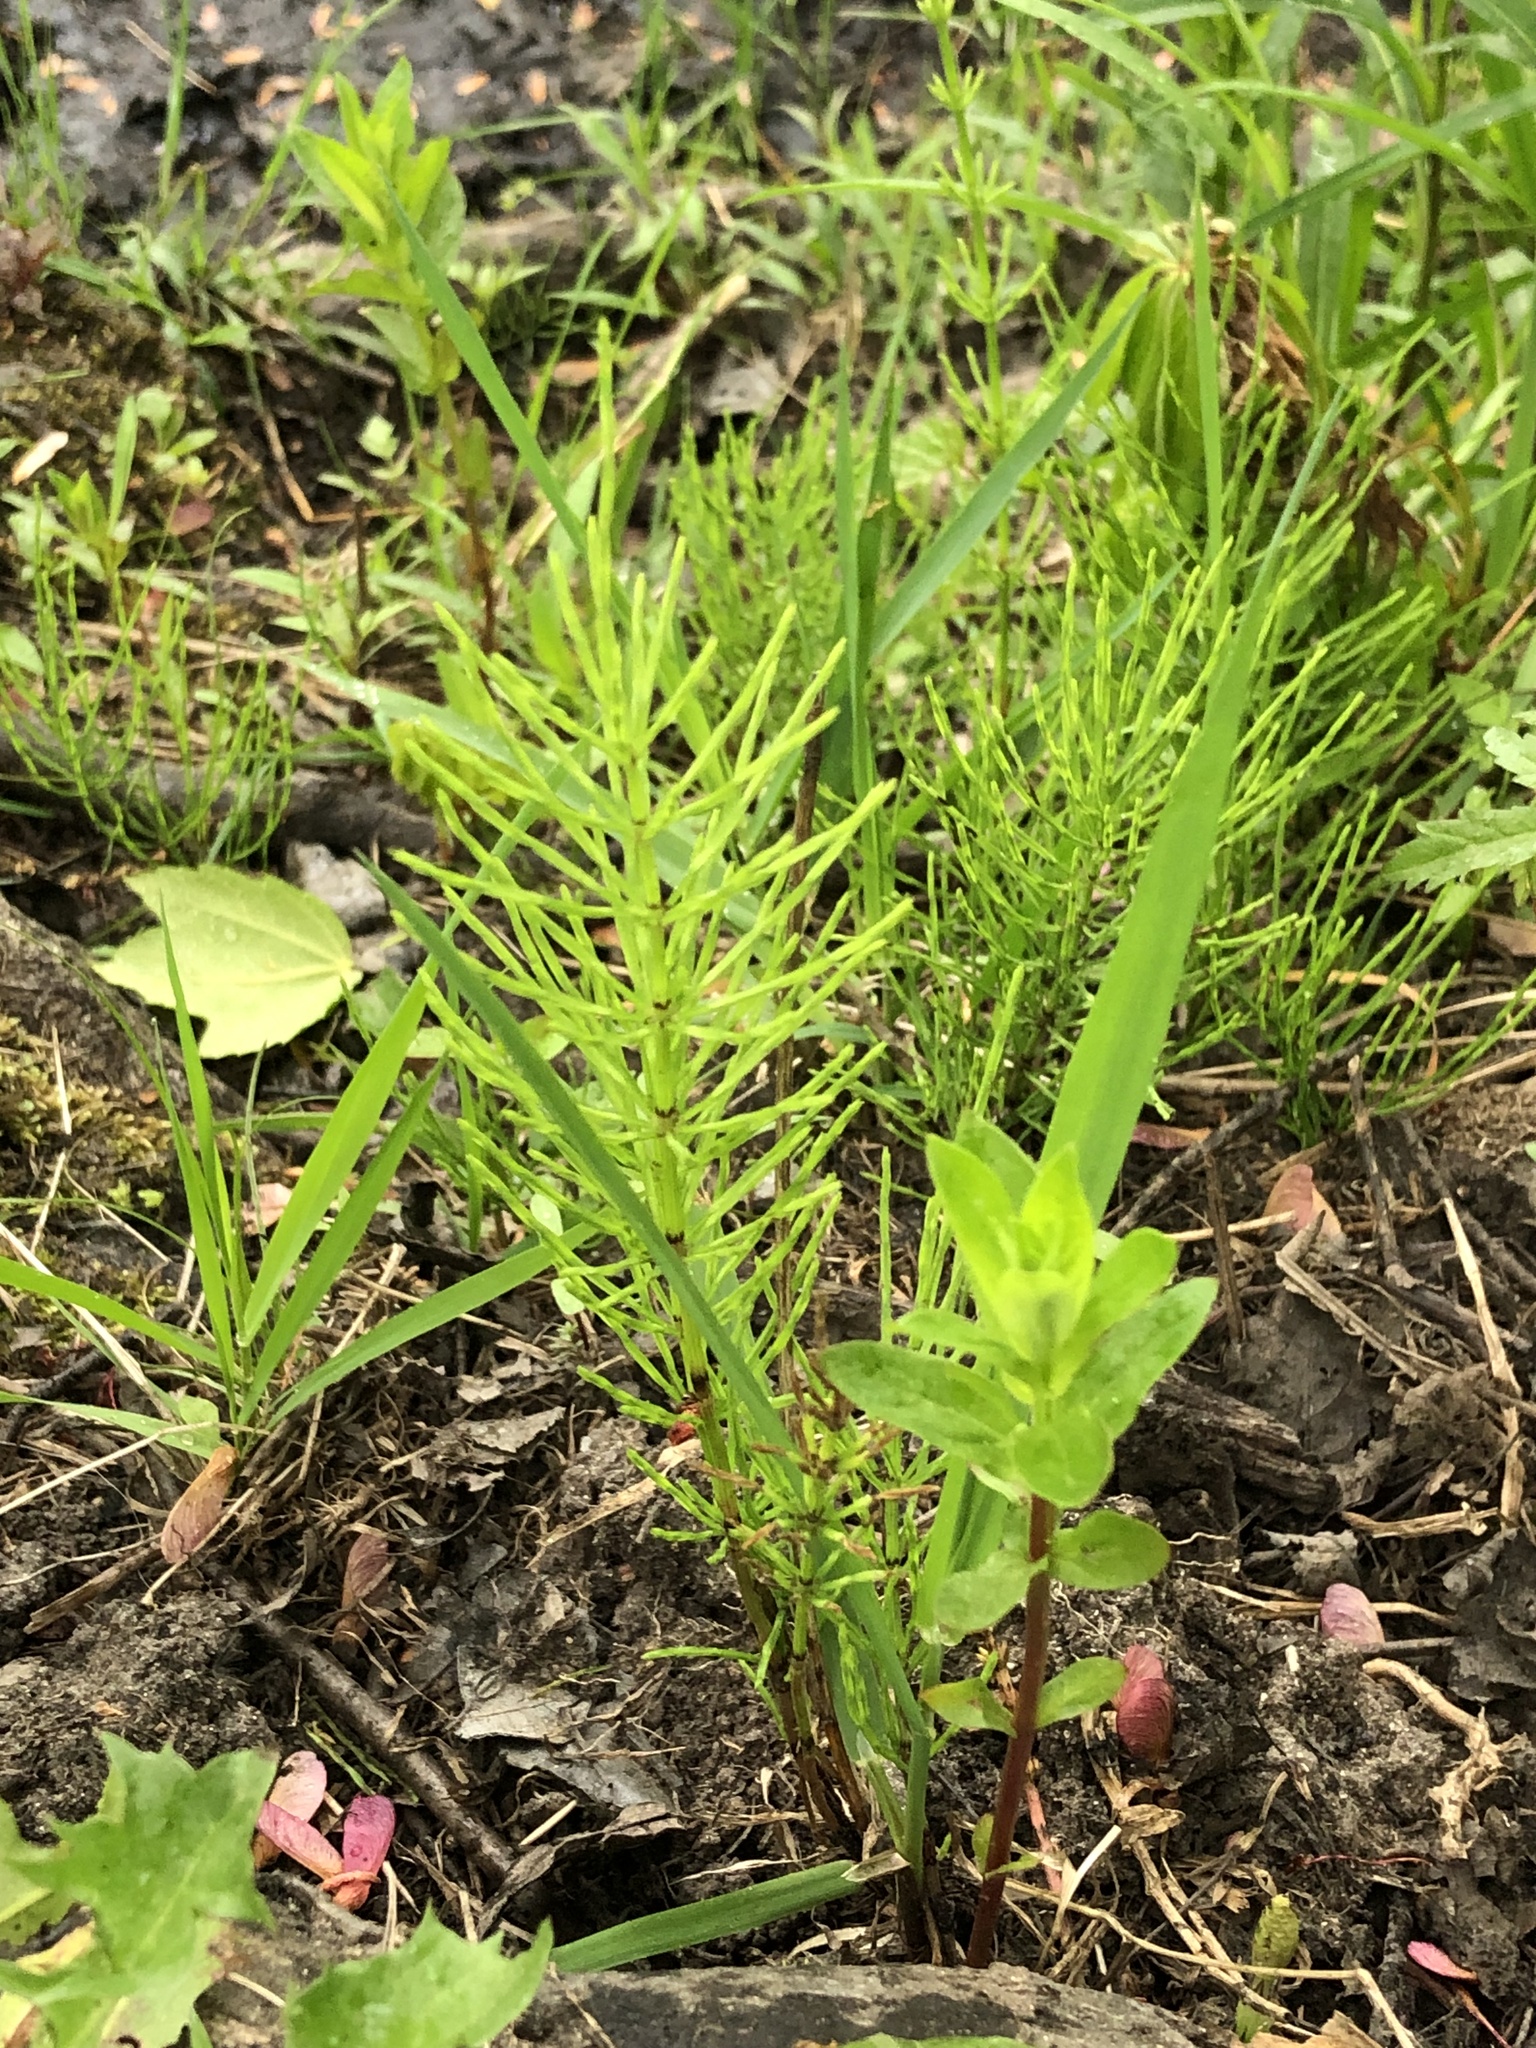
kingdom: Plantae
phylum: Tracheophyta
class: Polypodiopsida
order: Equisetales
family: Equisetaceae
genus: Equisetum
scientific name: Equisetum arvense
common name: Field horsetail
